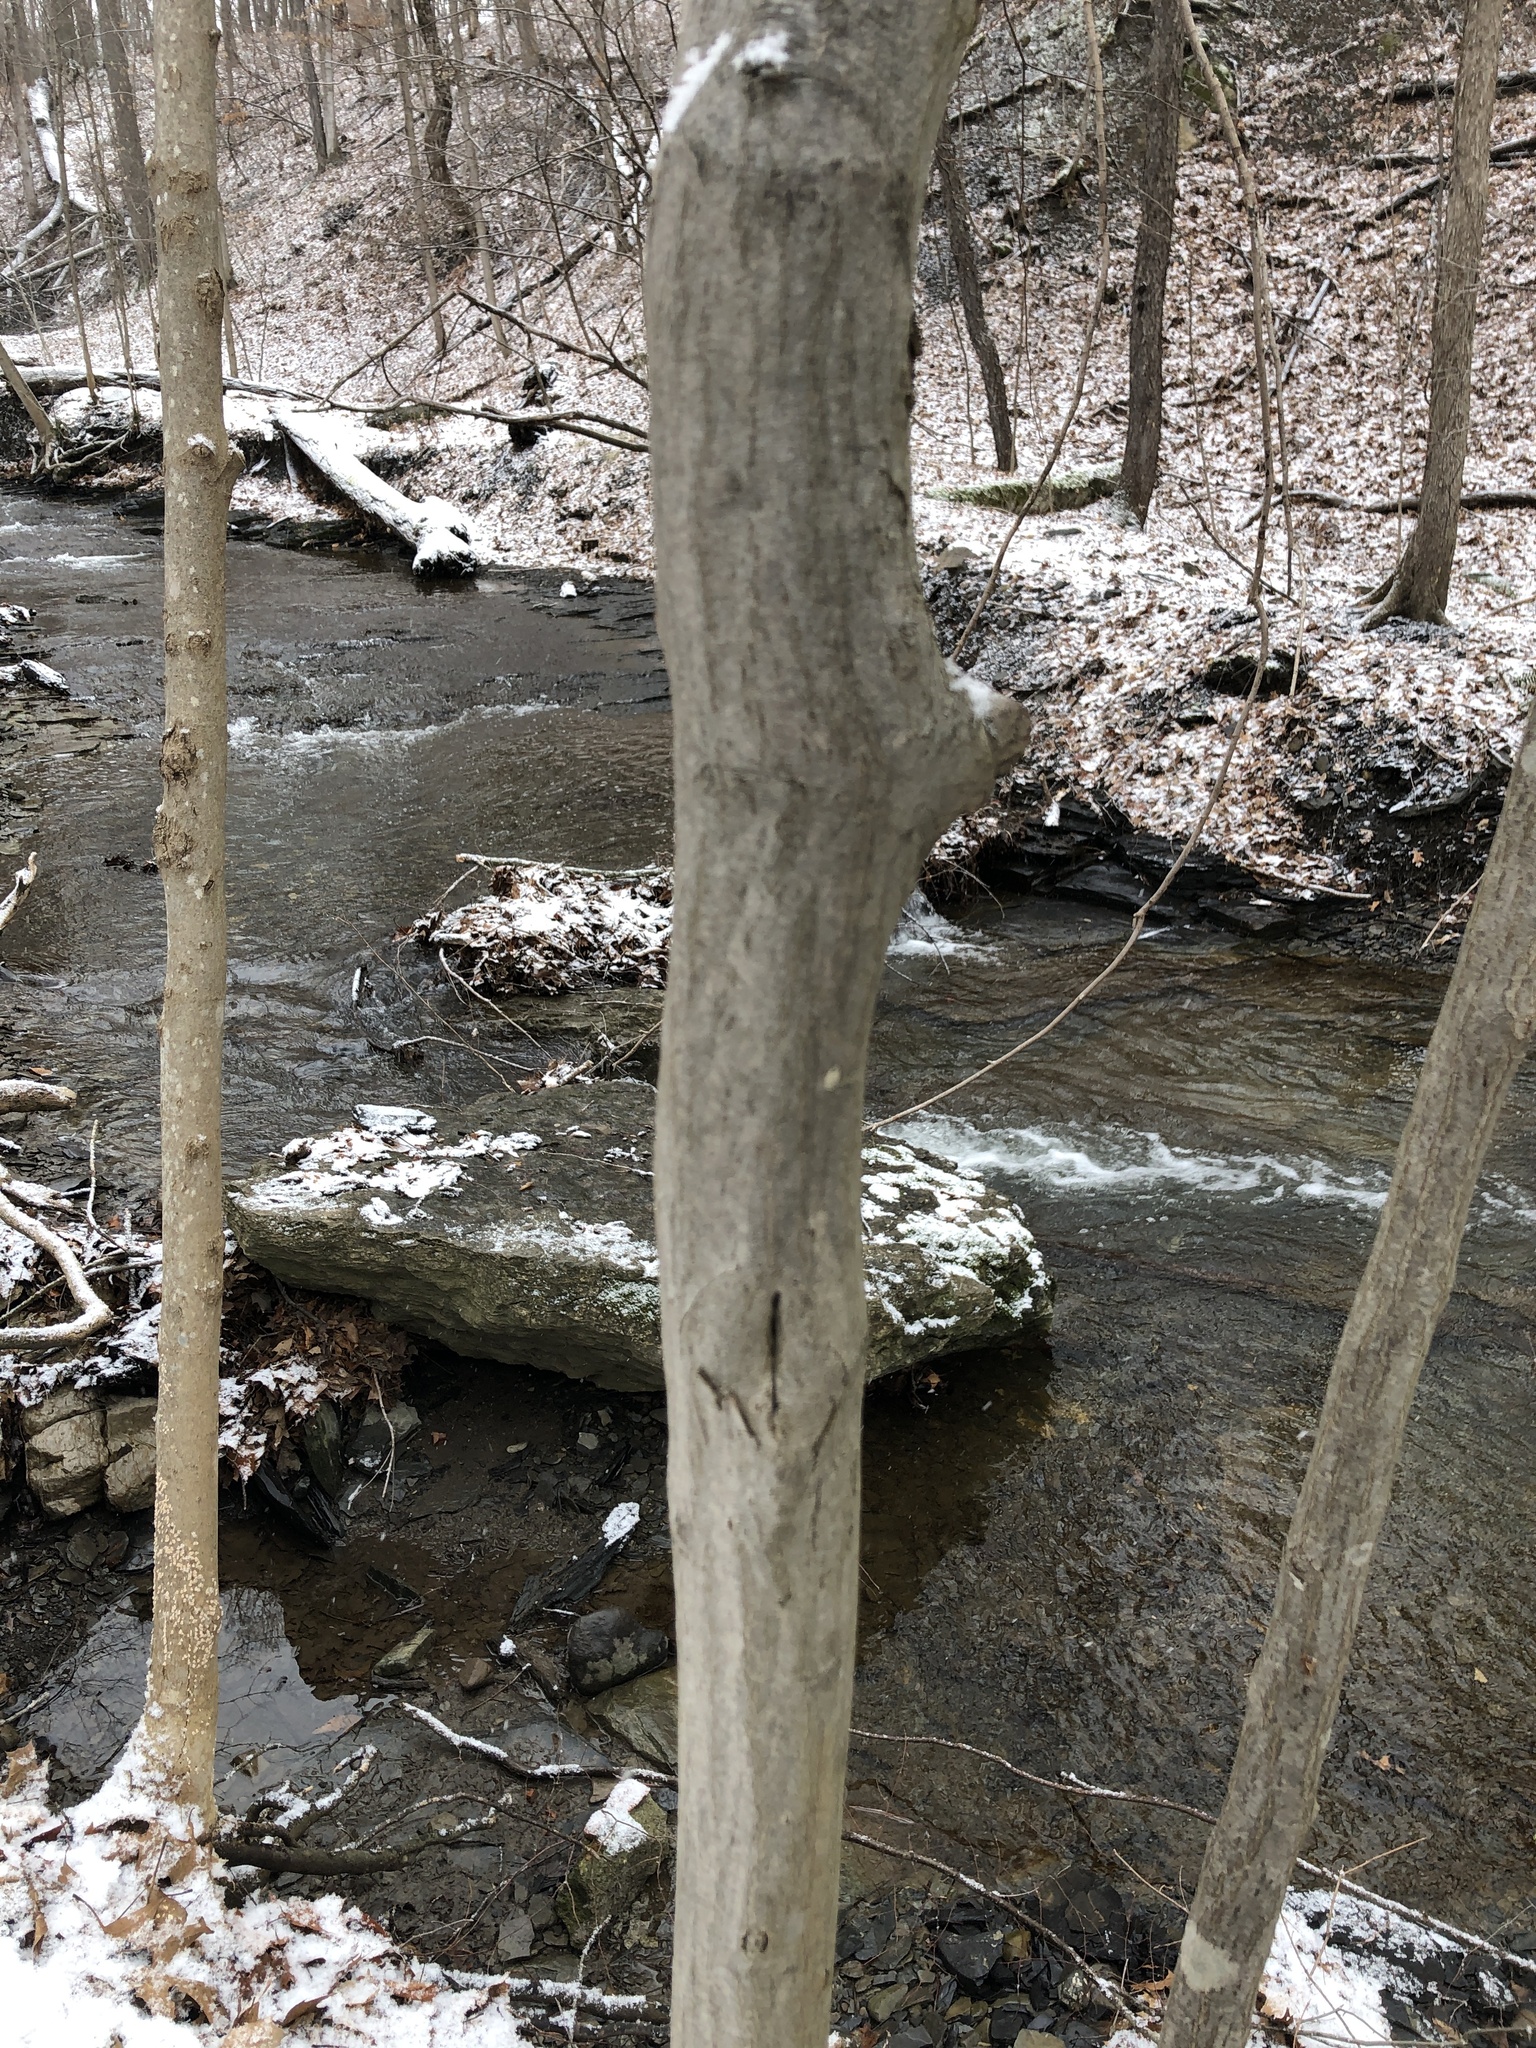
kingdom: Plantae
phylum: Tracheophyta
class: Magnoliopsida
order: Fagales
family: Betulaceae
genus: Carpinus
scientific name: Carpinus caroliniana
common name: American hornbeam
